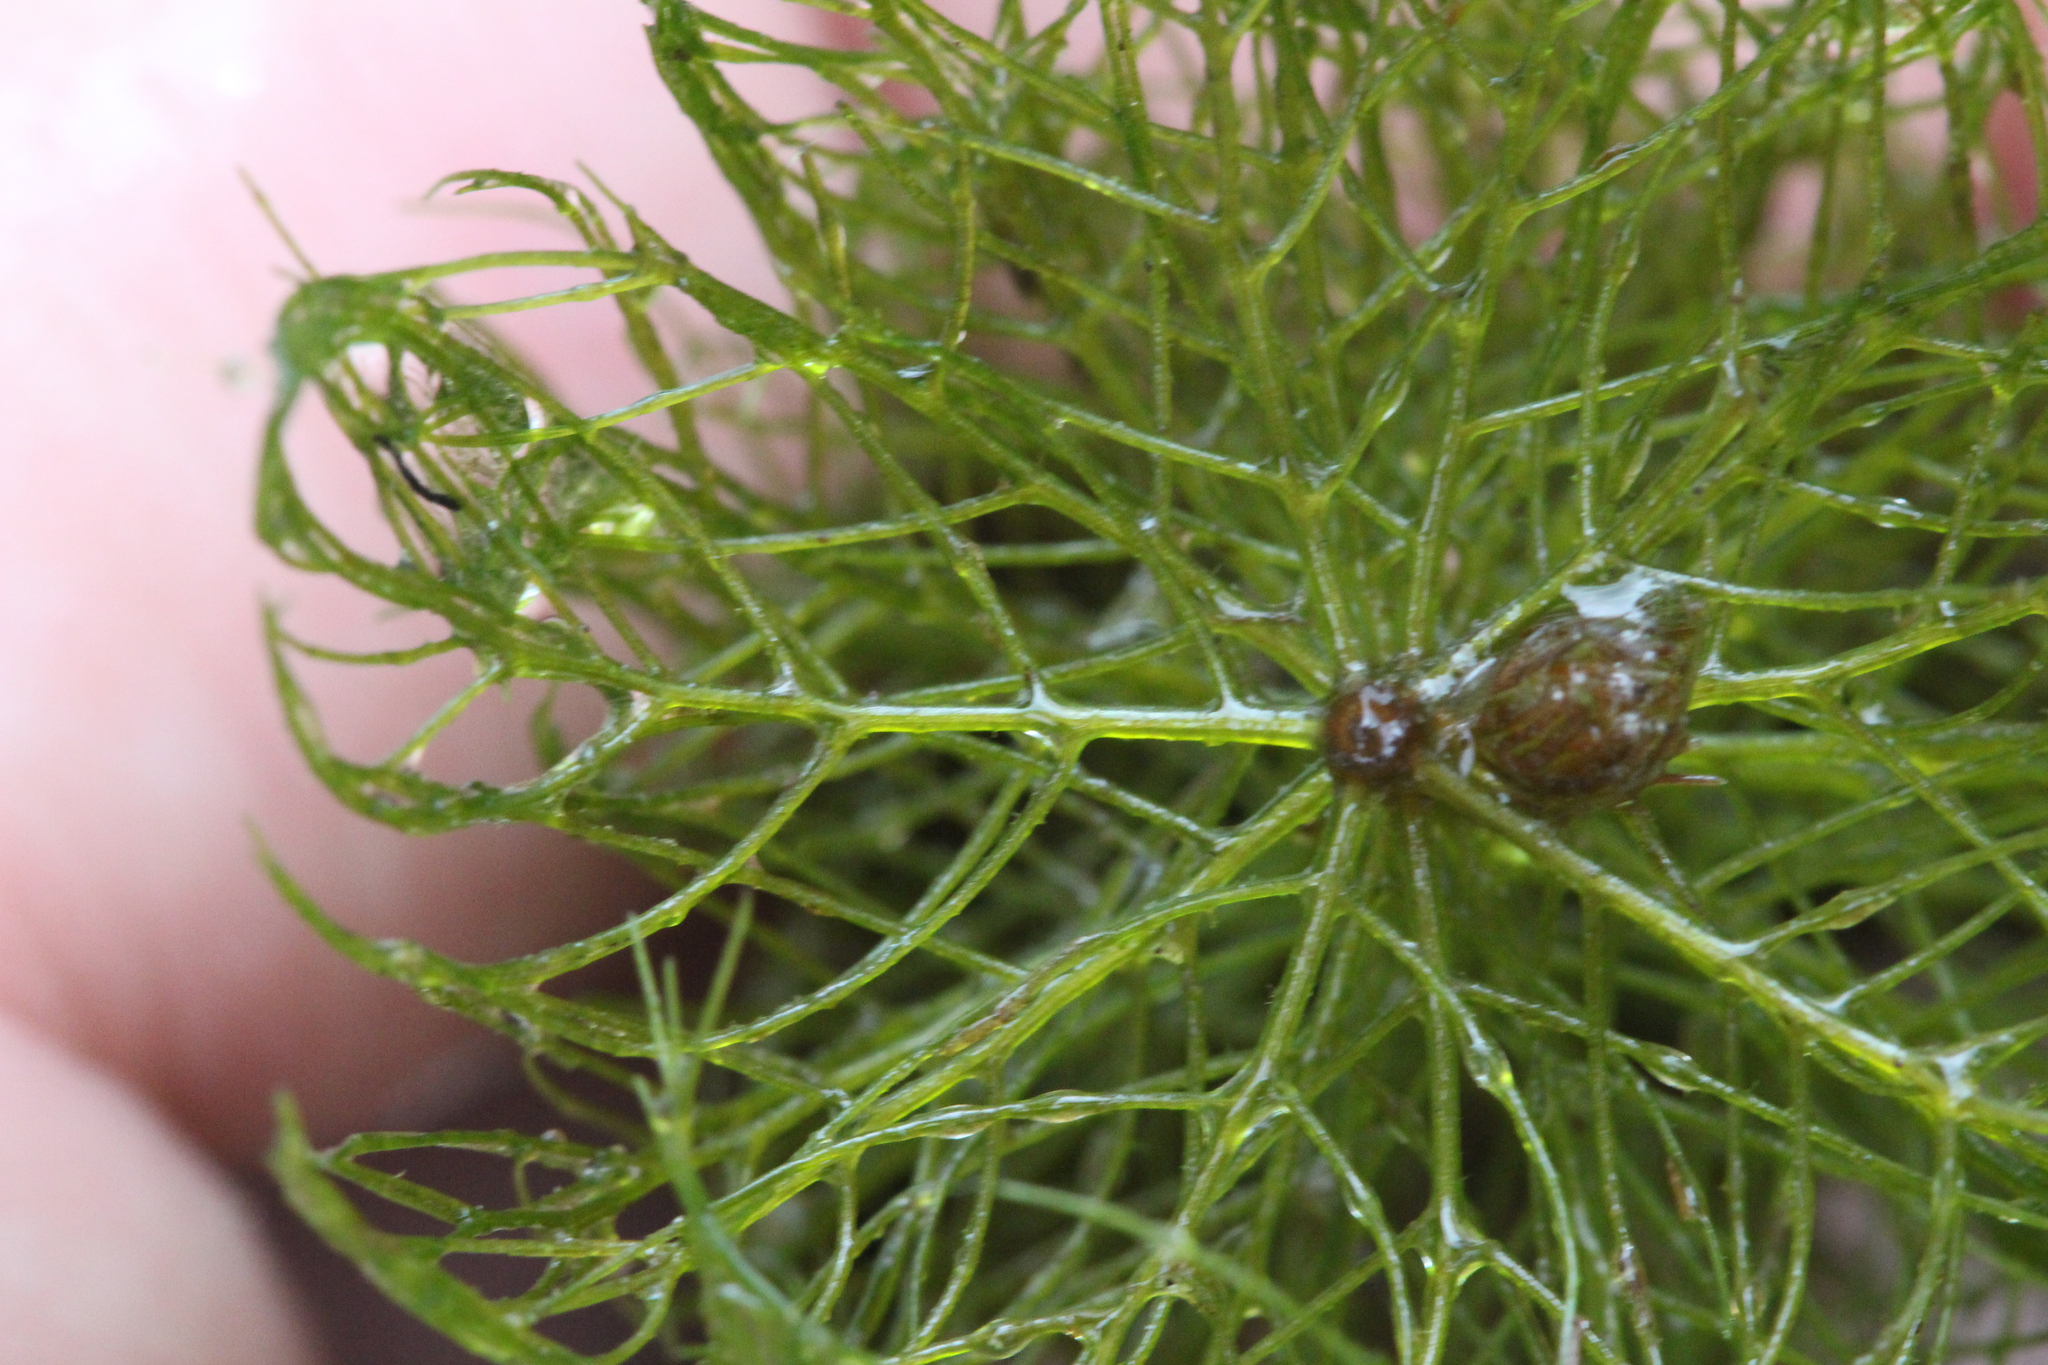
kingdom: Plantae
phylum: Tracheophyta
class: Magnoliopsida
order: Saxifragales
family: Haloragaceae
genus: Myriophyllum
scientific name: Myriophyllum heterophyllum
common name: Variable watermilfoil
